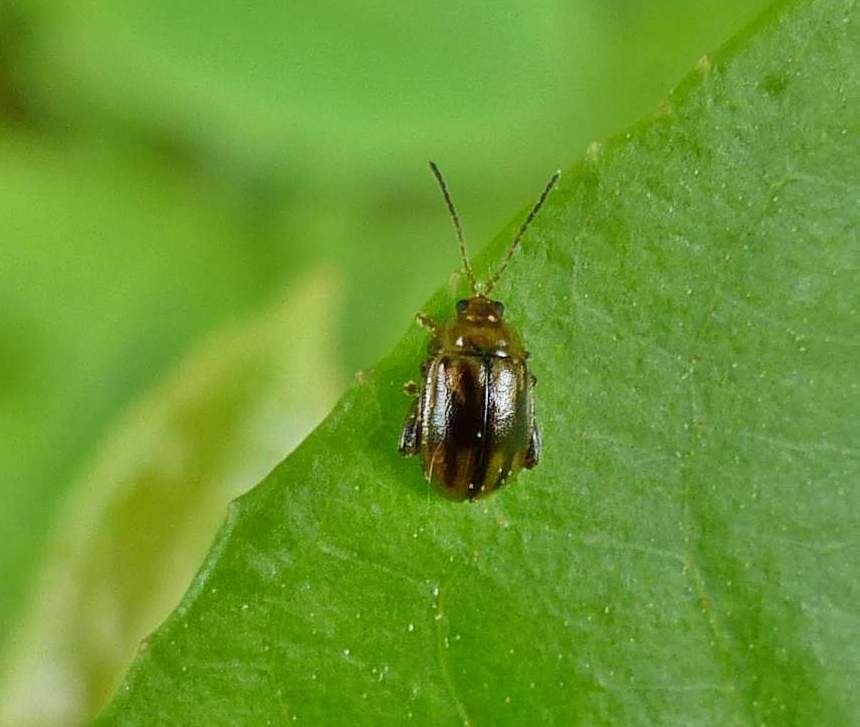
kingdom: Animalia
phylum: Arthropoda
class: Insecta
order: Coleoptera
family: Chrysomelidae
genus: Capraita
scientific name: Capraita subvittata
